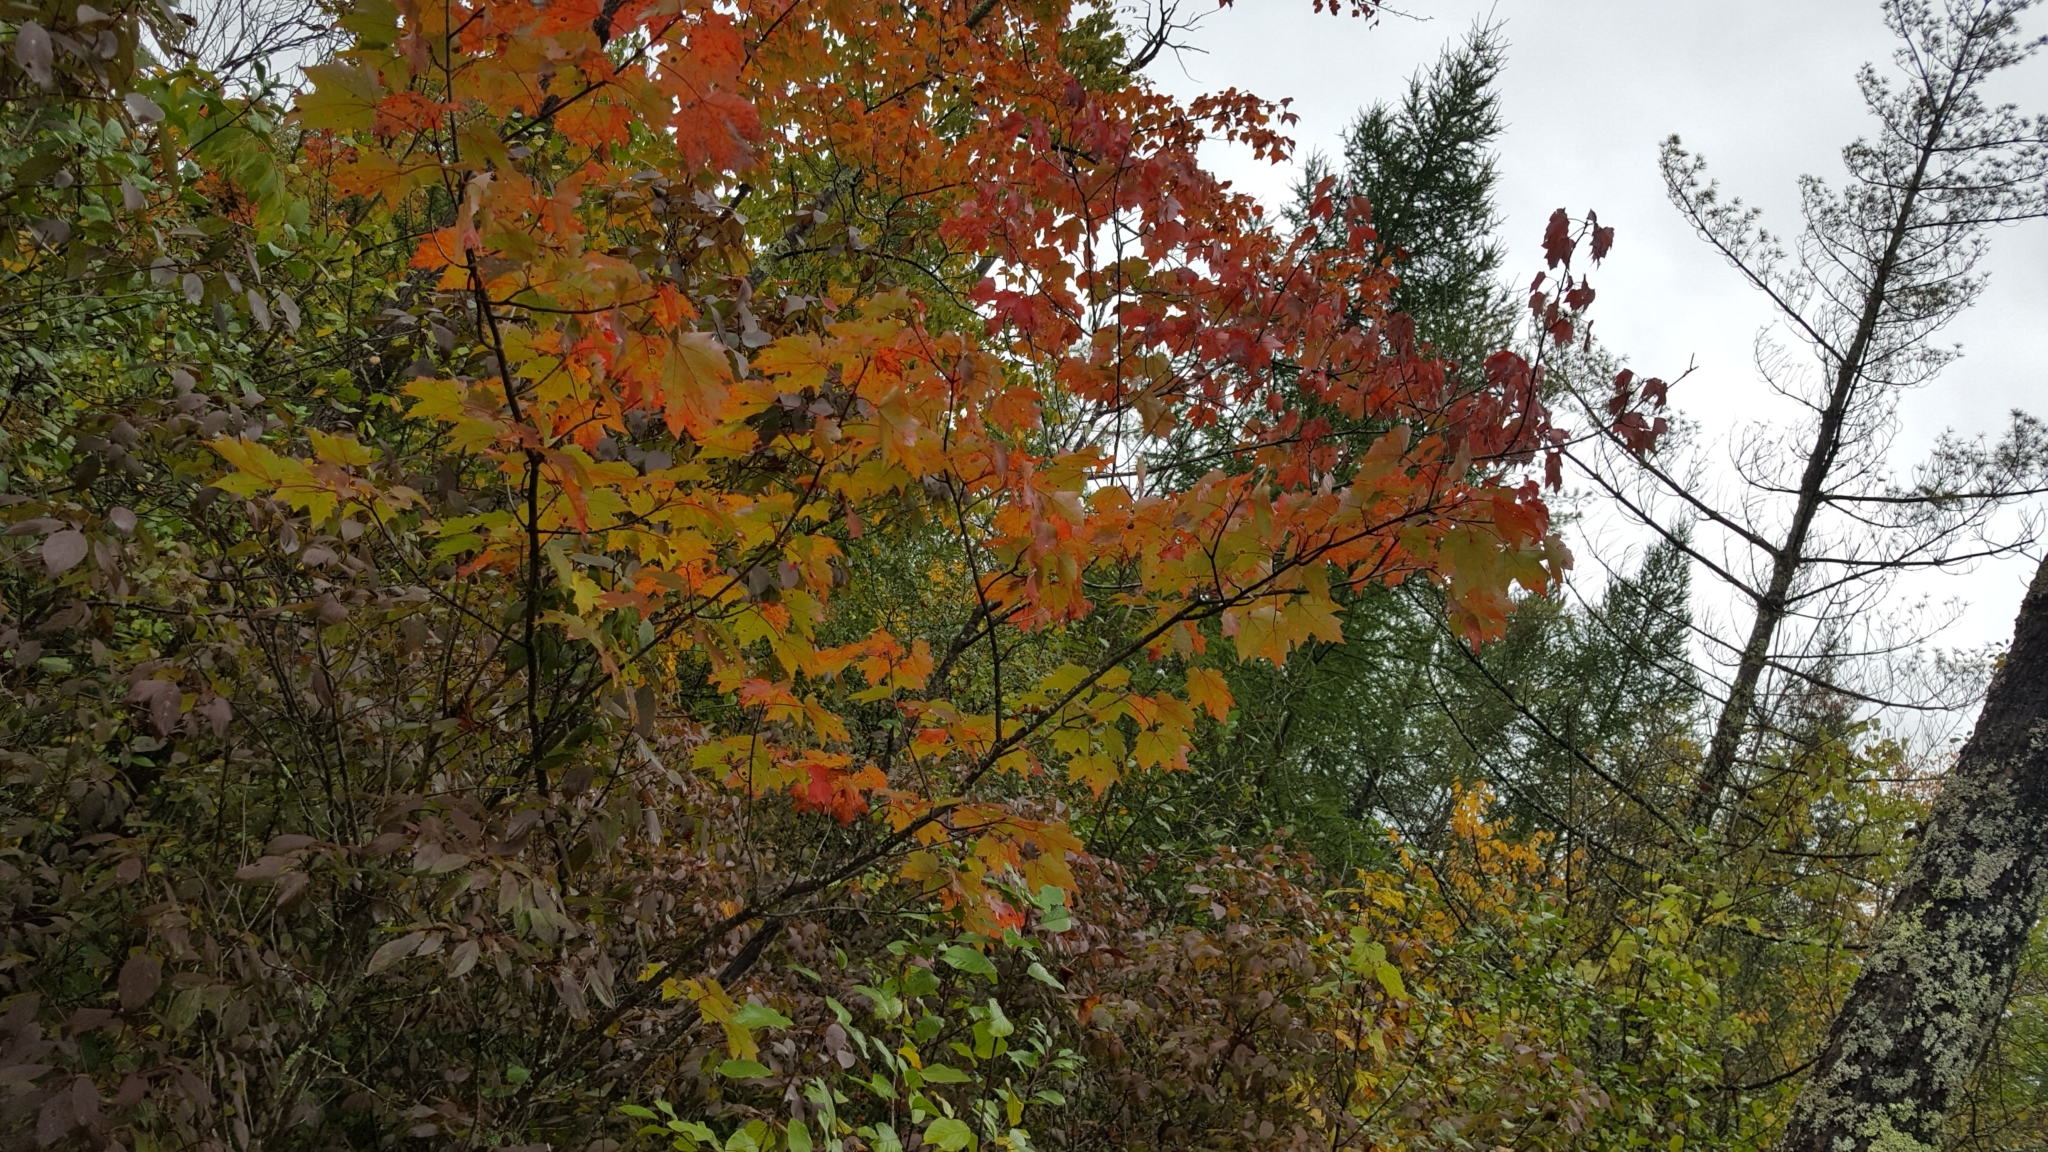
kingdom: Plantae
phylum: Tracheophyta
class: Magnoliopsida
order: Sapindales
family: Sapindaceae
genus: Acer
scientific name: Acer rubrum
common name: Red maple
